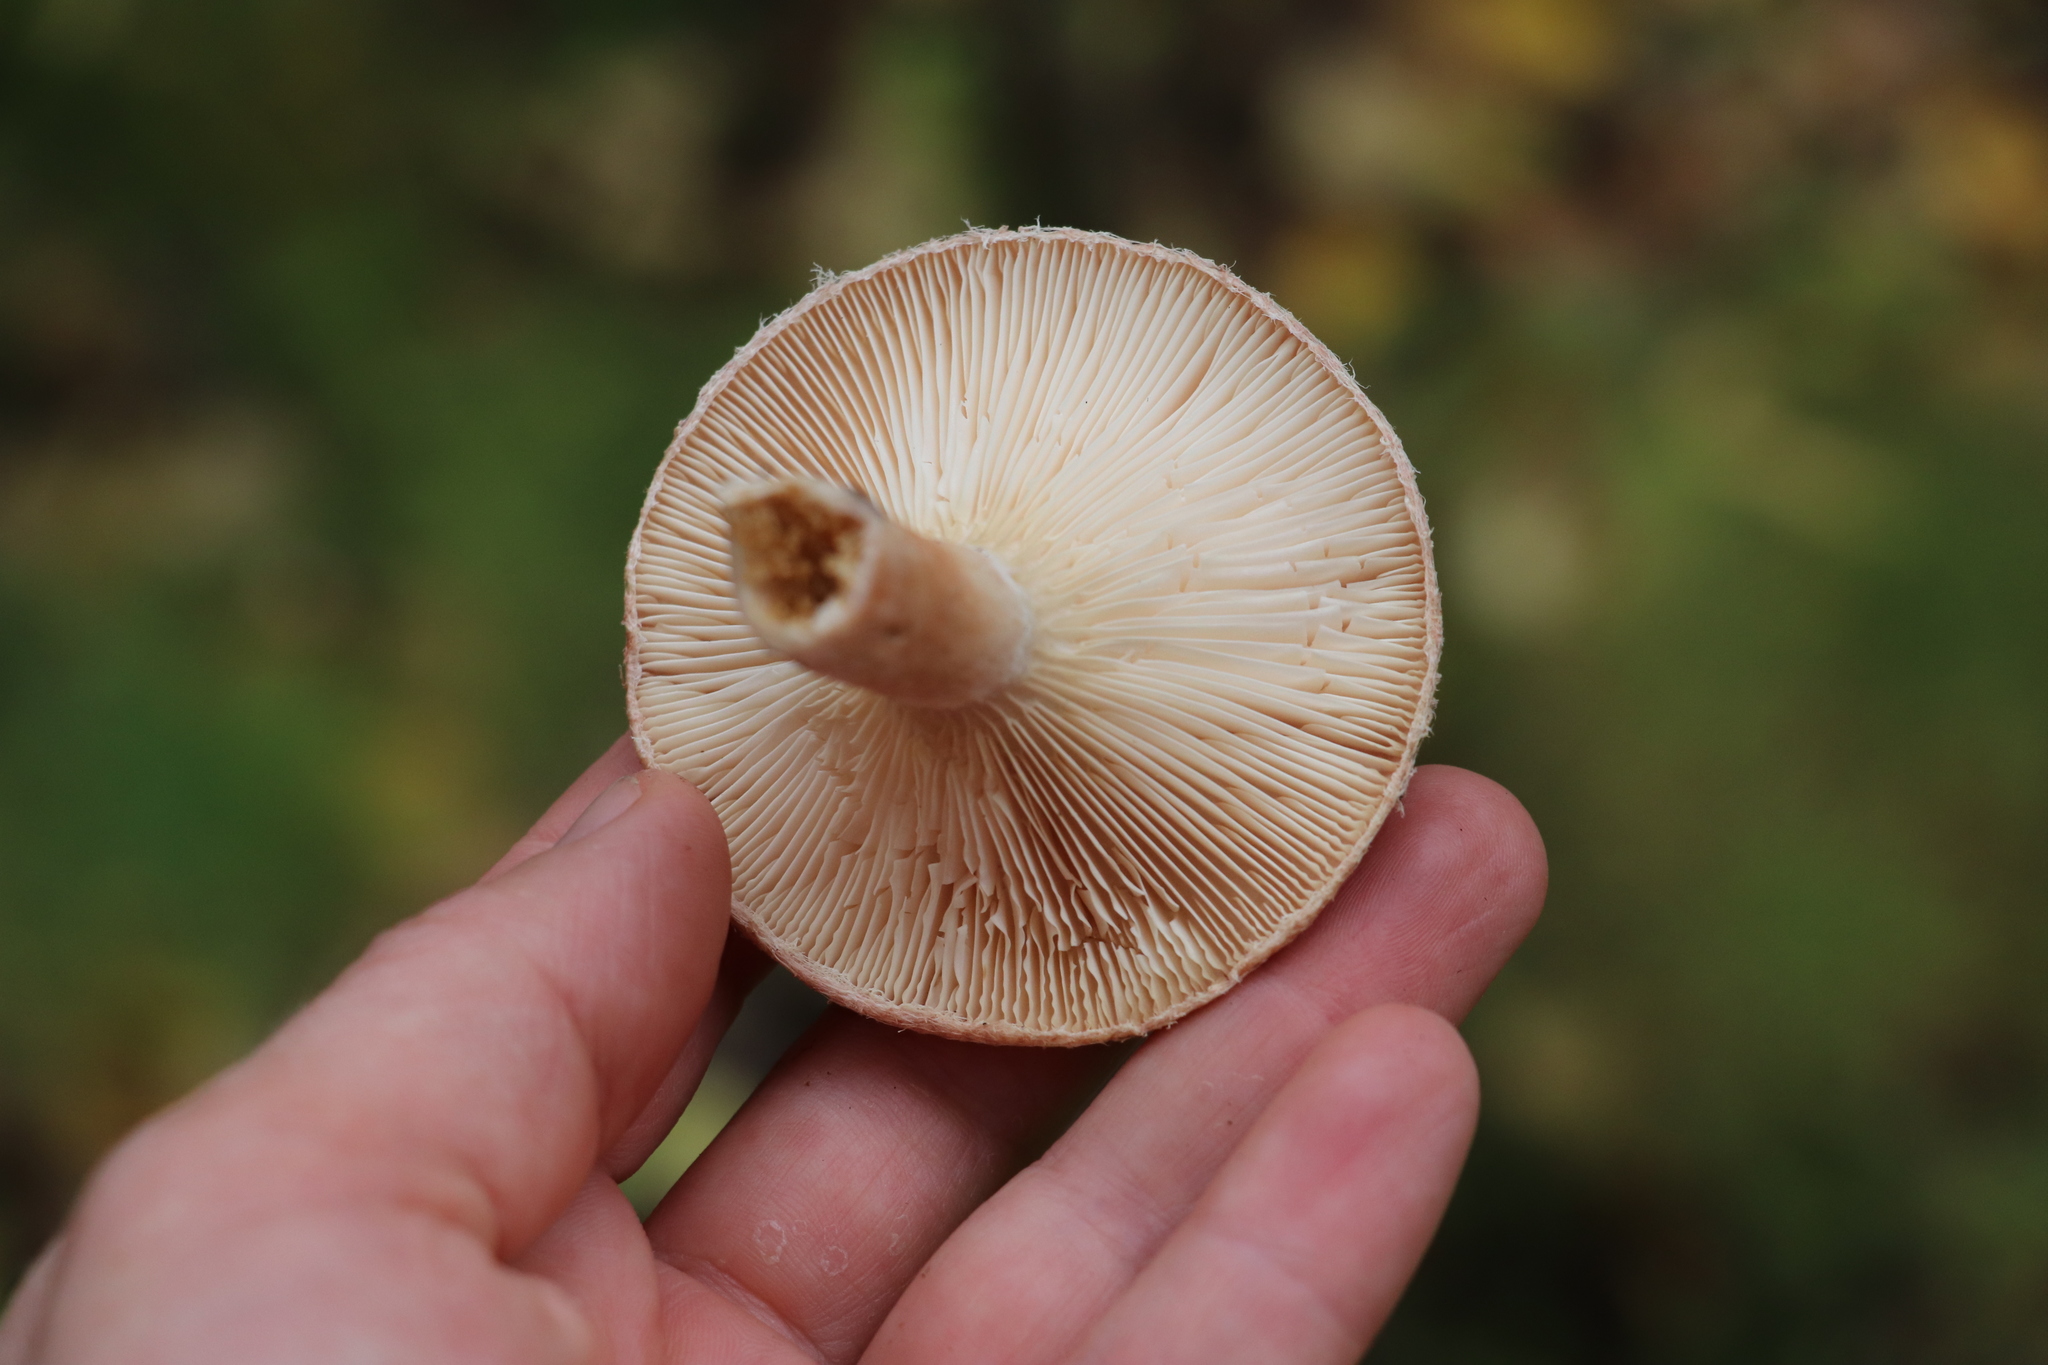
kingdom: Fungi
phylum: Basidiomycota
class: Agaricomycetes
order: Russulales
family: Russulaceae
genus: Lactarius
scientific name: Lactarius torminosus
